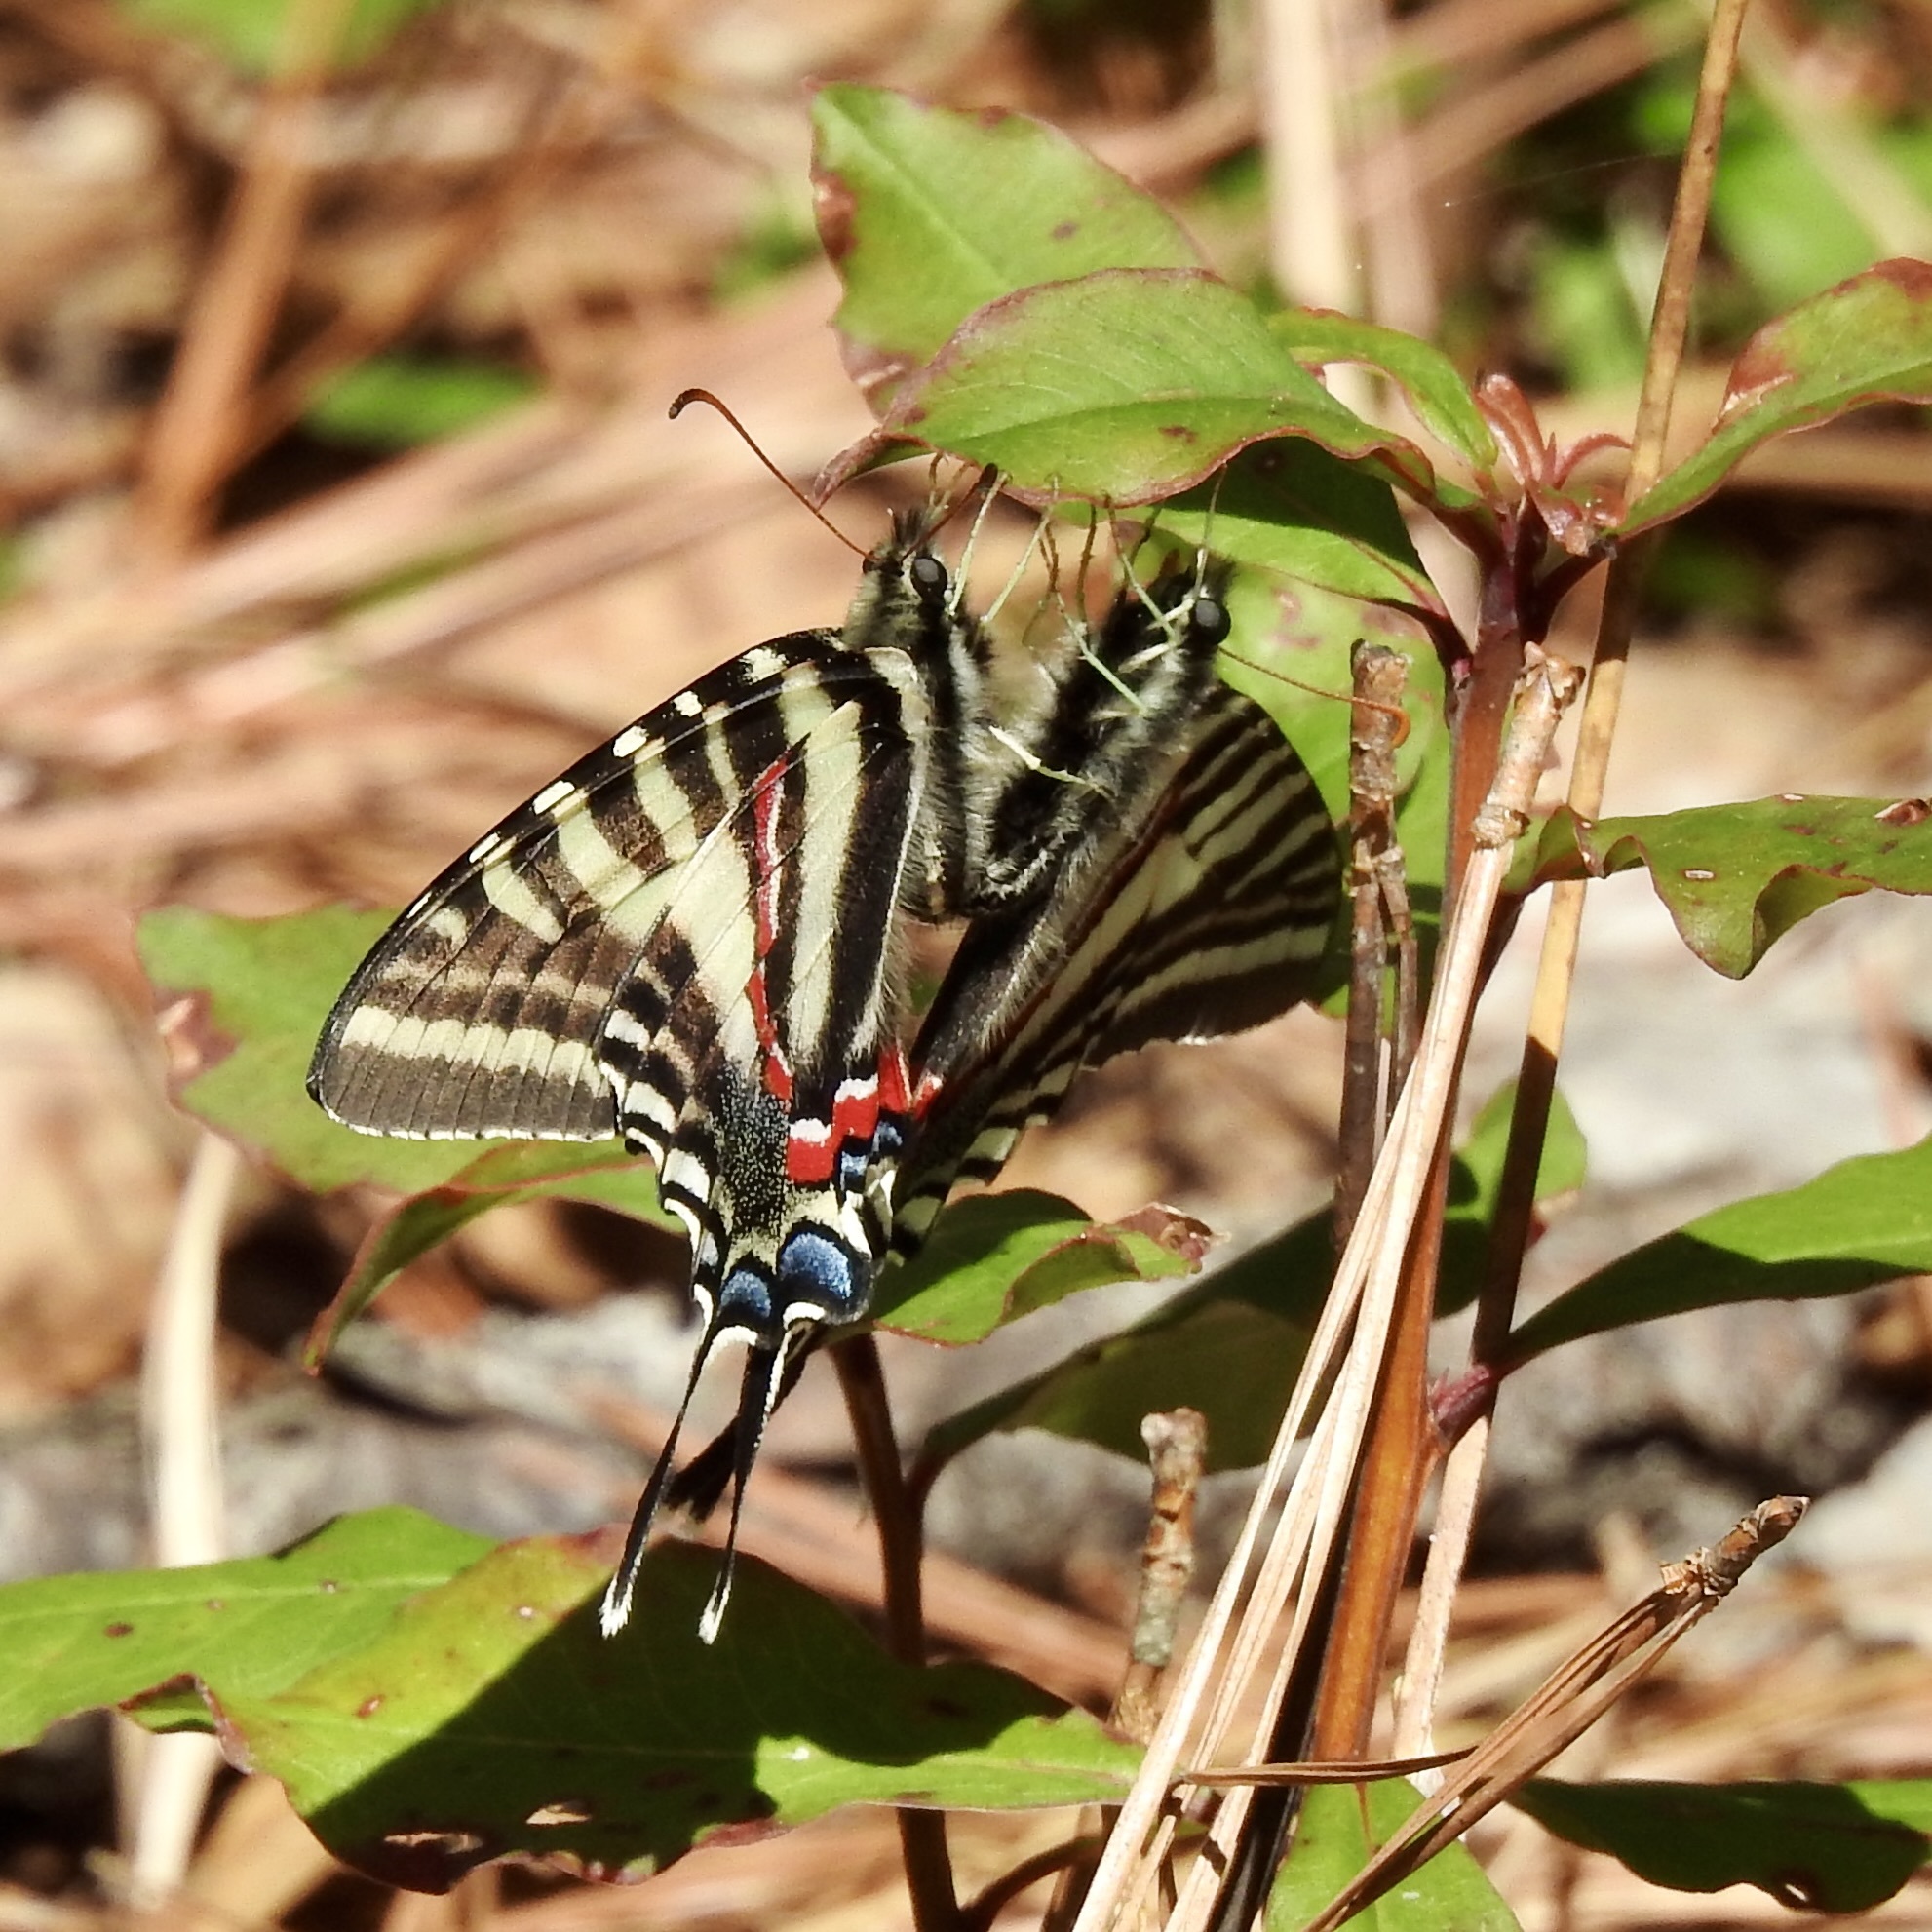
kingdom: Animalia
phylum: Arthropoda
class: Insecta
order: Lepidoptera
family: Papilionidae
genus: Protographium
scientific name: Protographium marcellus
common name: Zebra swallowtail
